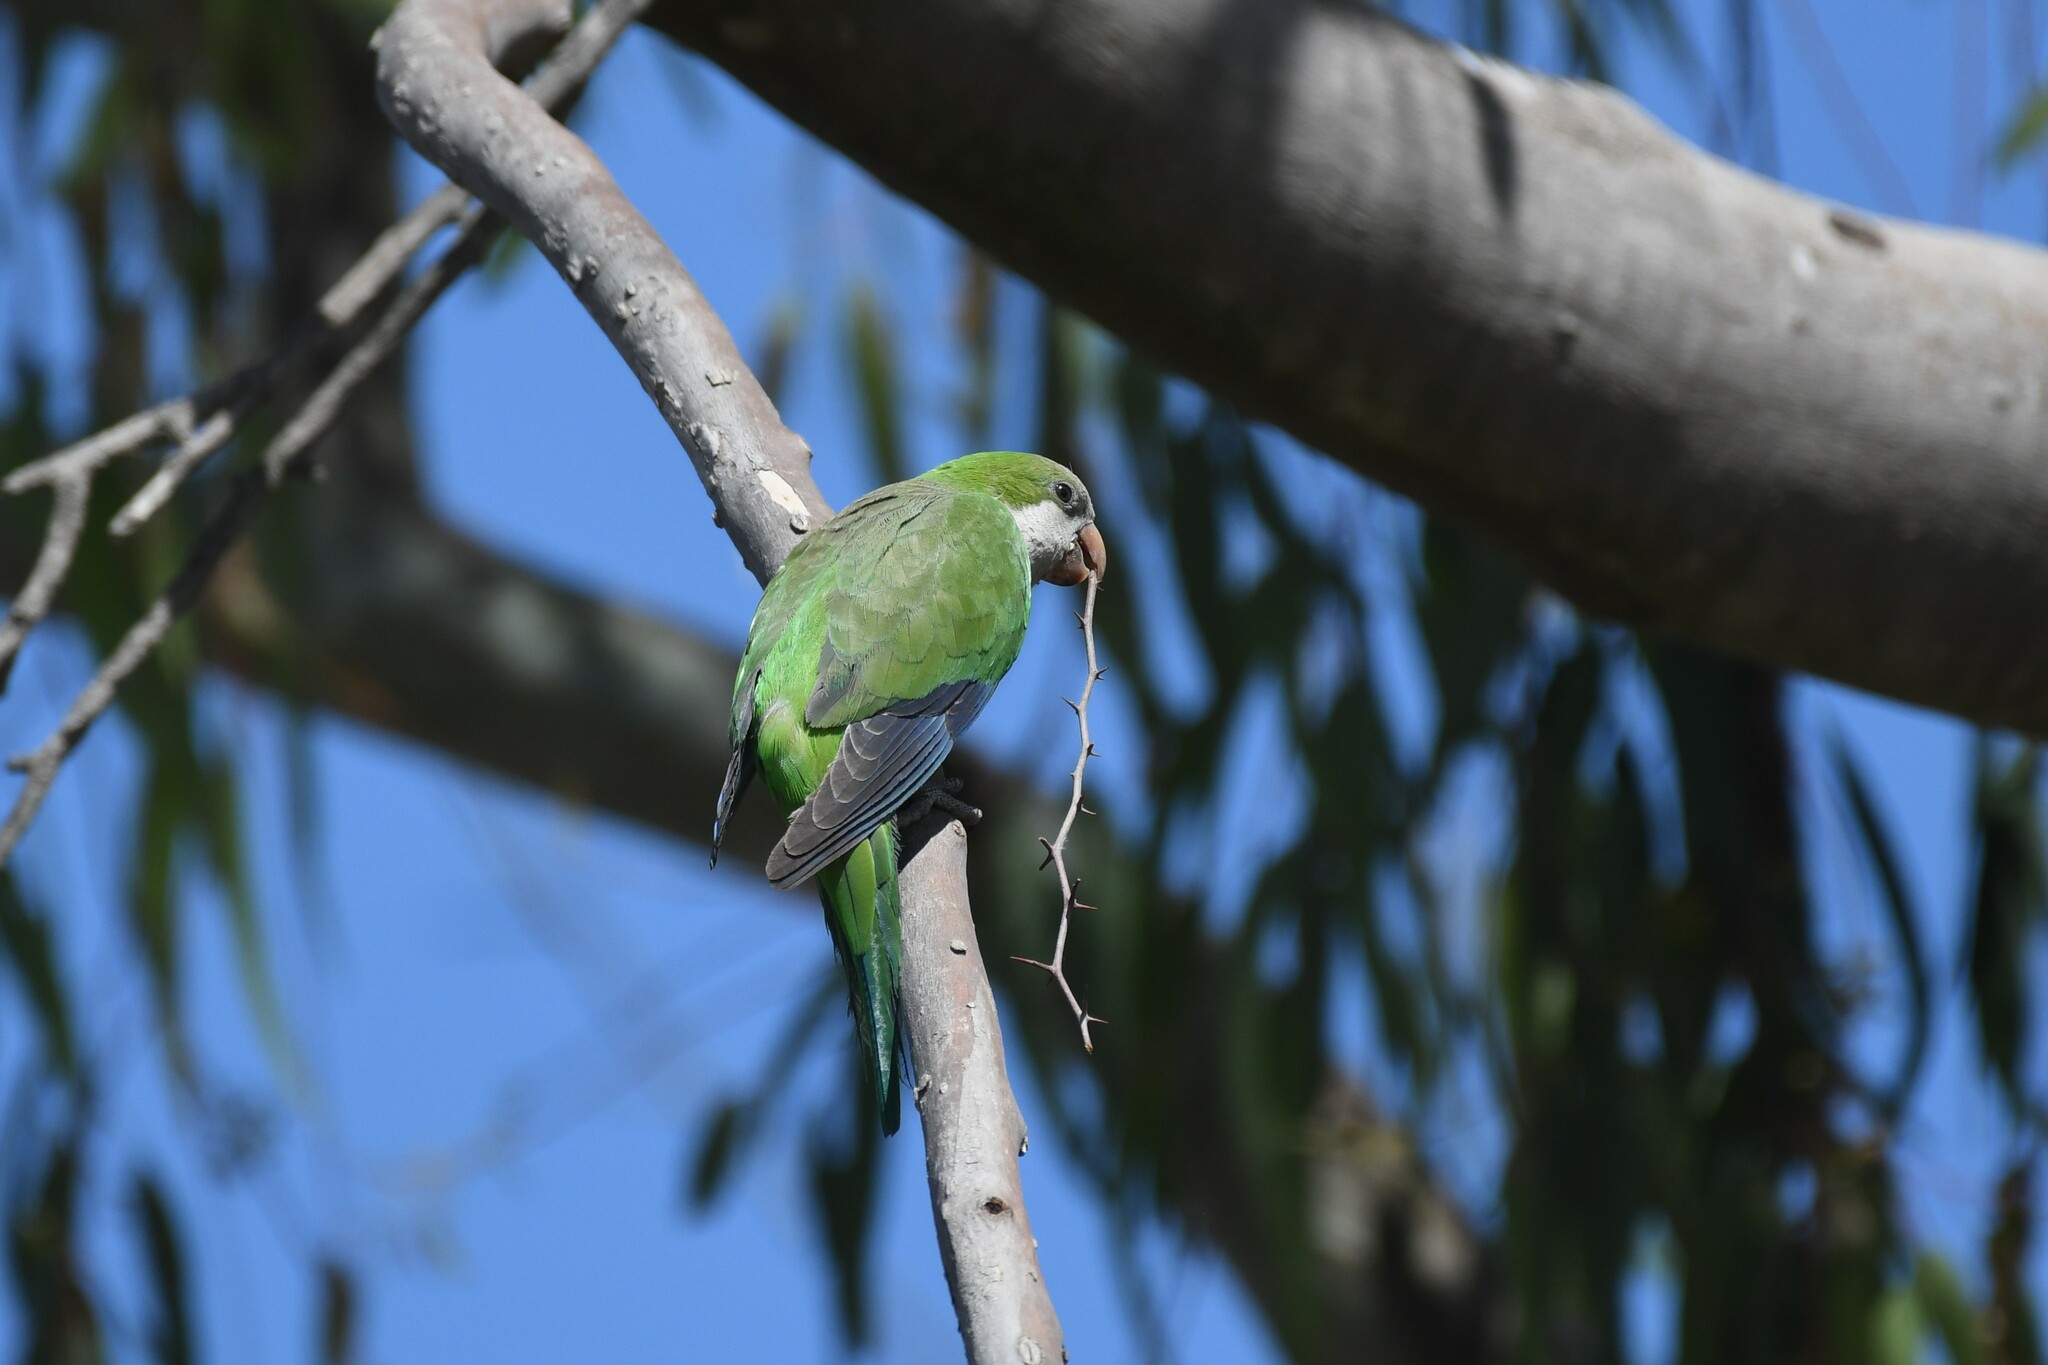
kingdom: Animalia
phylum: Chordata
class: Aves
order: Psittaciformes
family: Psittacidae
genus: Myiopsitta
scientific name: Myiopsitta monachus
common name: Monk parakeet
